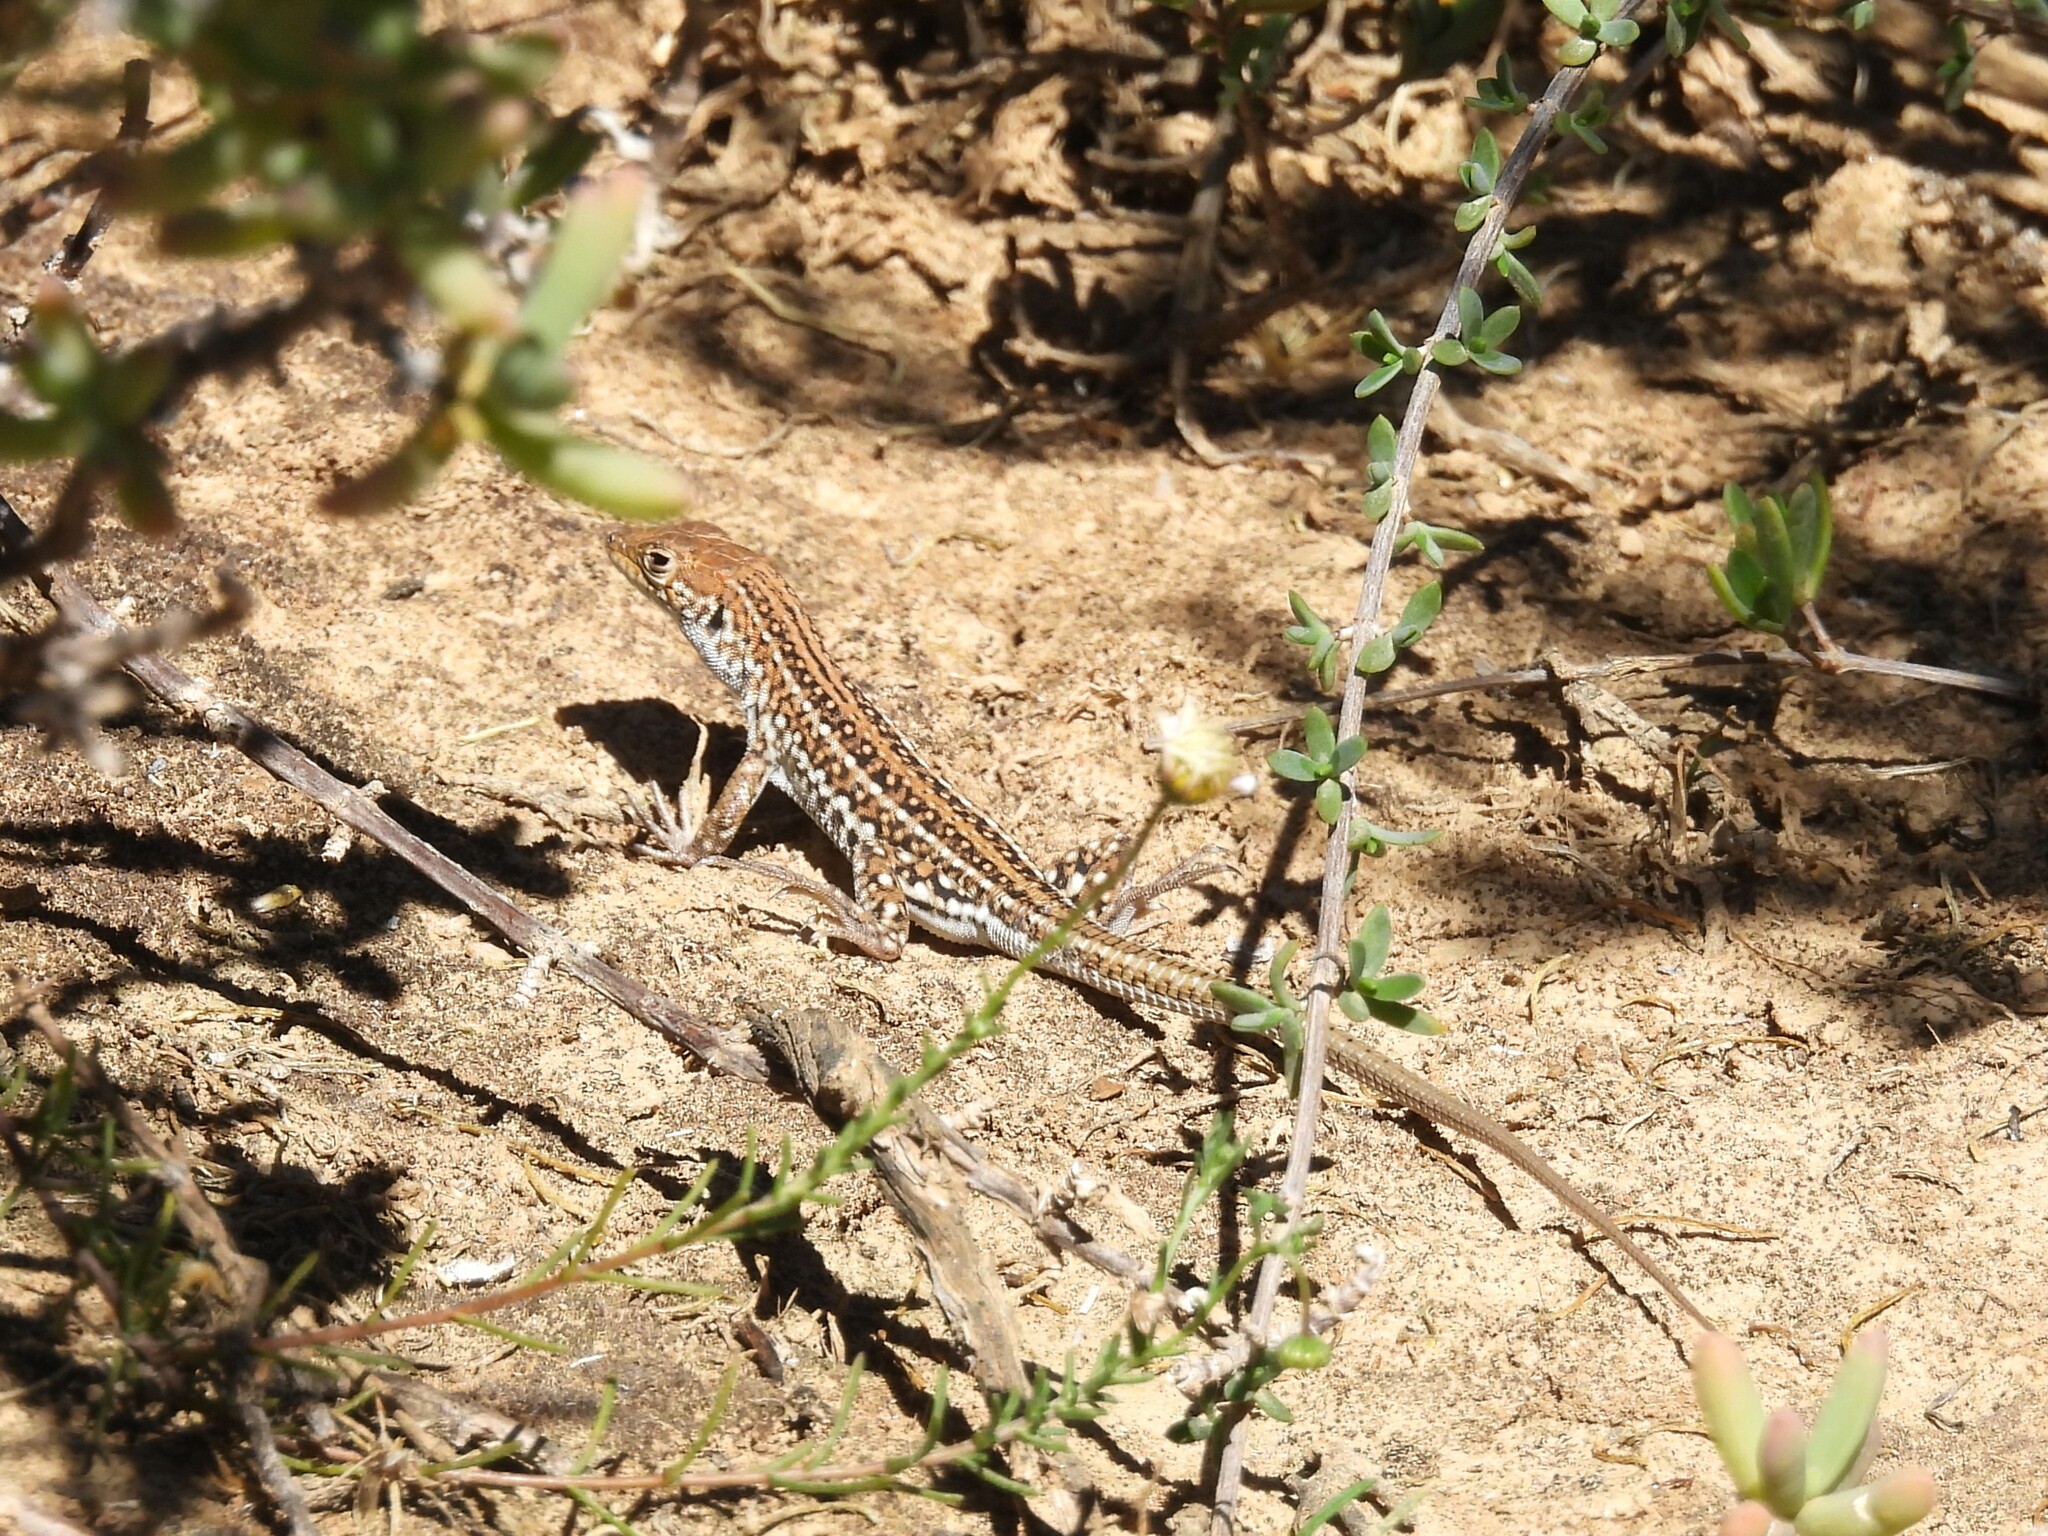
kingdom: Animalia
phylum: Chordata
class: Squamata
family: Lacertidae
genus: Meroles
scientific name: Meroles knoxii
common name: Knox's desert lizard
